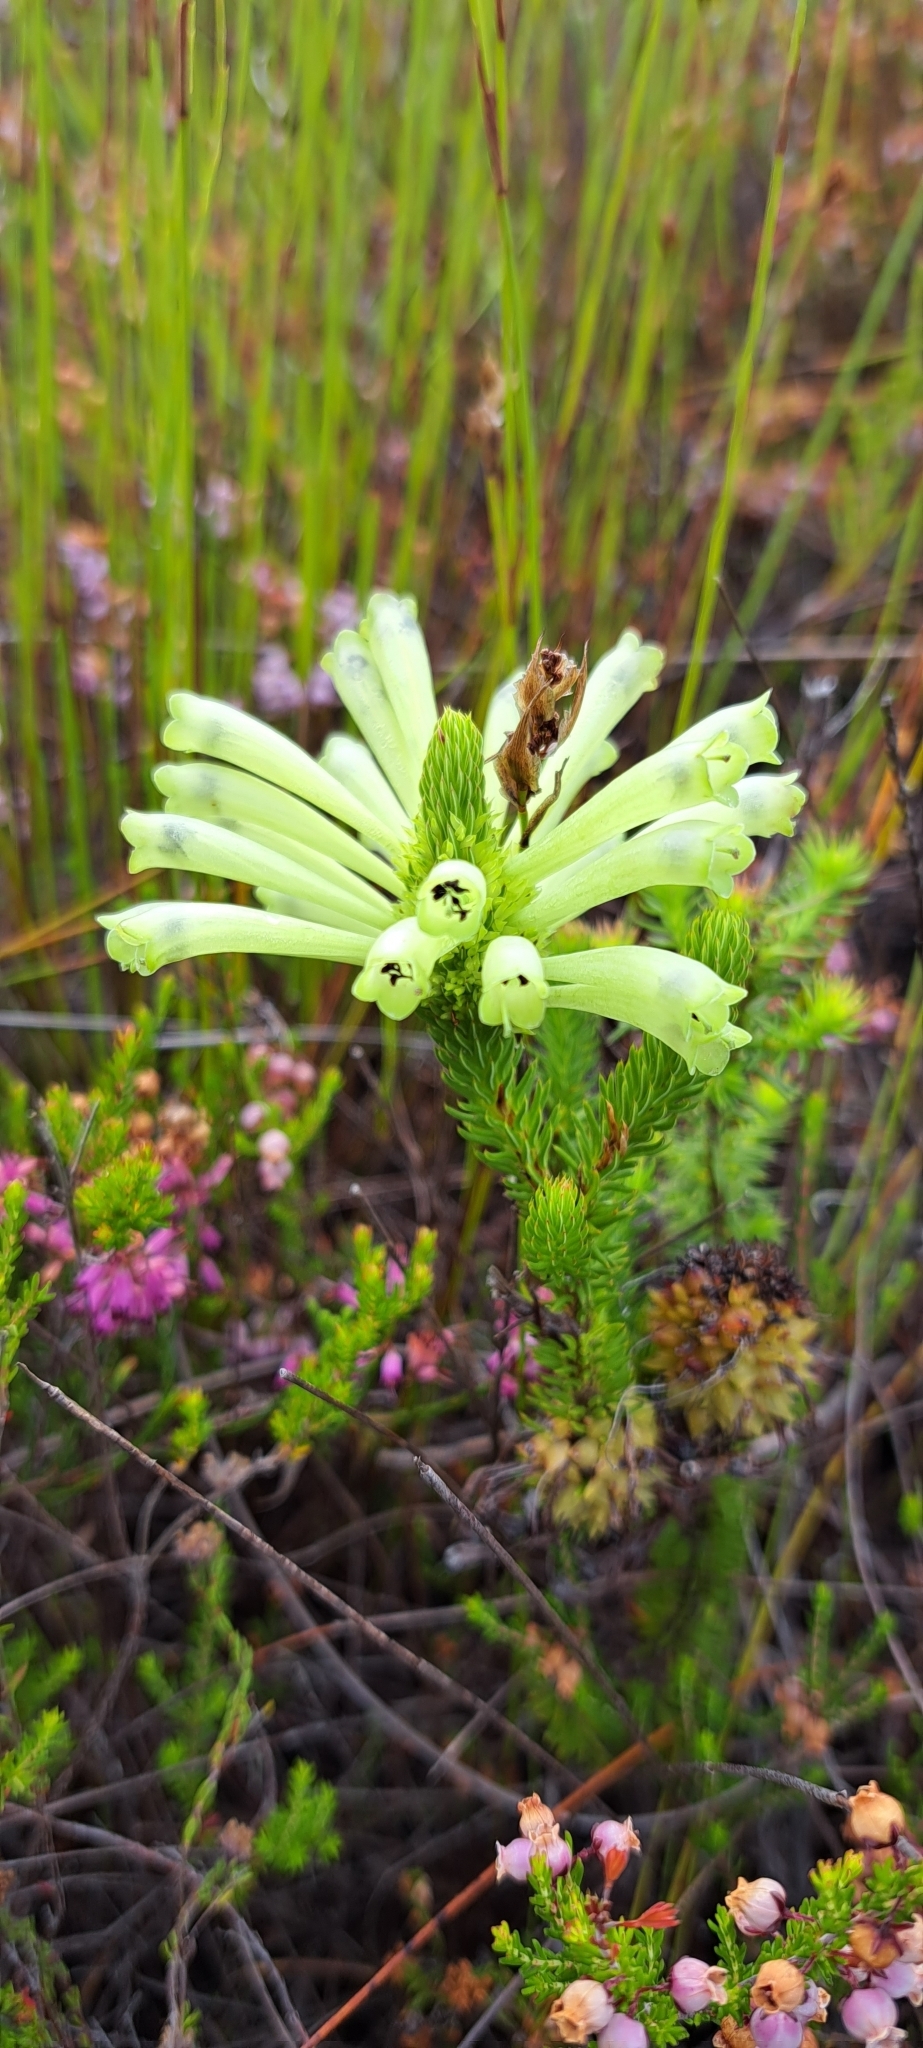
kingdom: Plantae
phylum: Tracheophyta
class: Magnoliopsida
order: Ericales
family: Ericaceae
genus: Erica
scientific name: Erica sessiliflora
